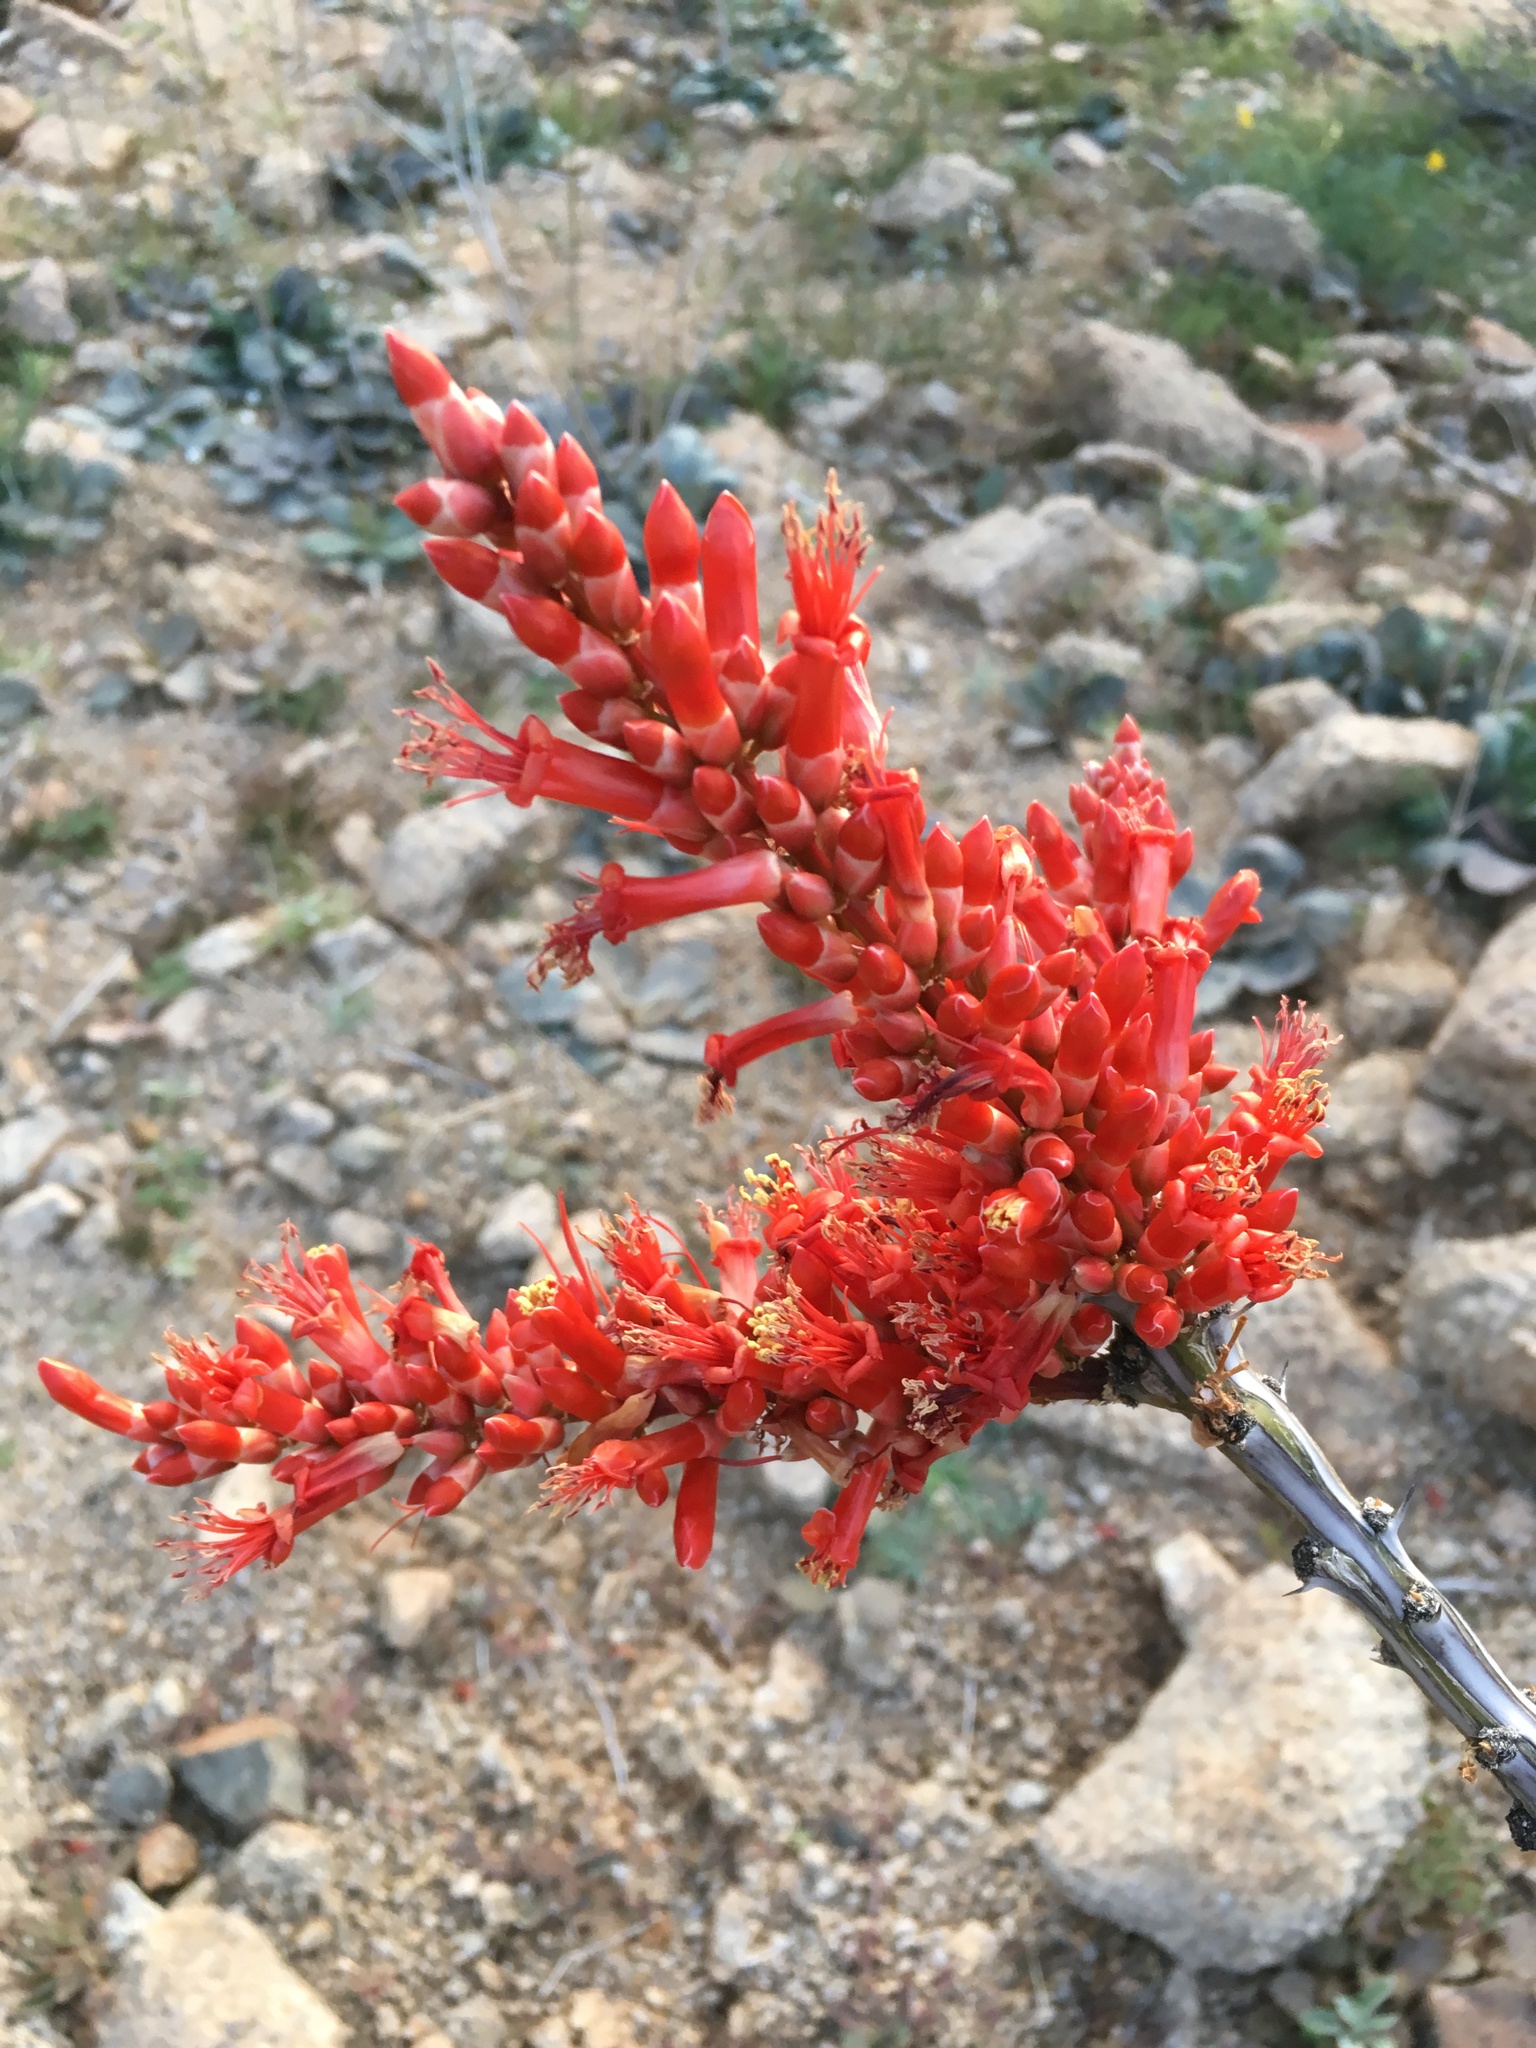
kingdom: Plantae
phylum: Tracheophyta
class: Magnoliopsida
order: Ericales
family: Fouquieriaceae
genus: Fouquieria
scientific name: Fouquieria splendens
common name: Vine-cactus
